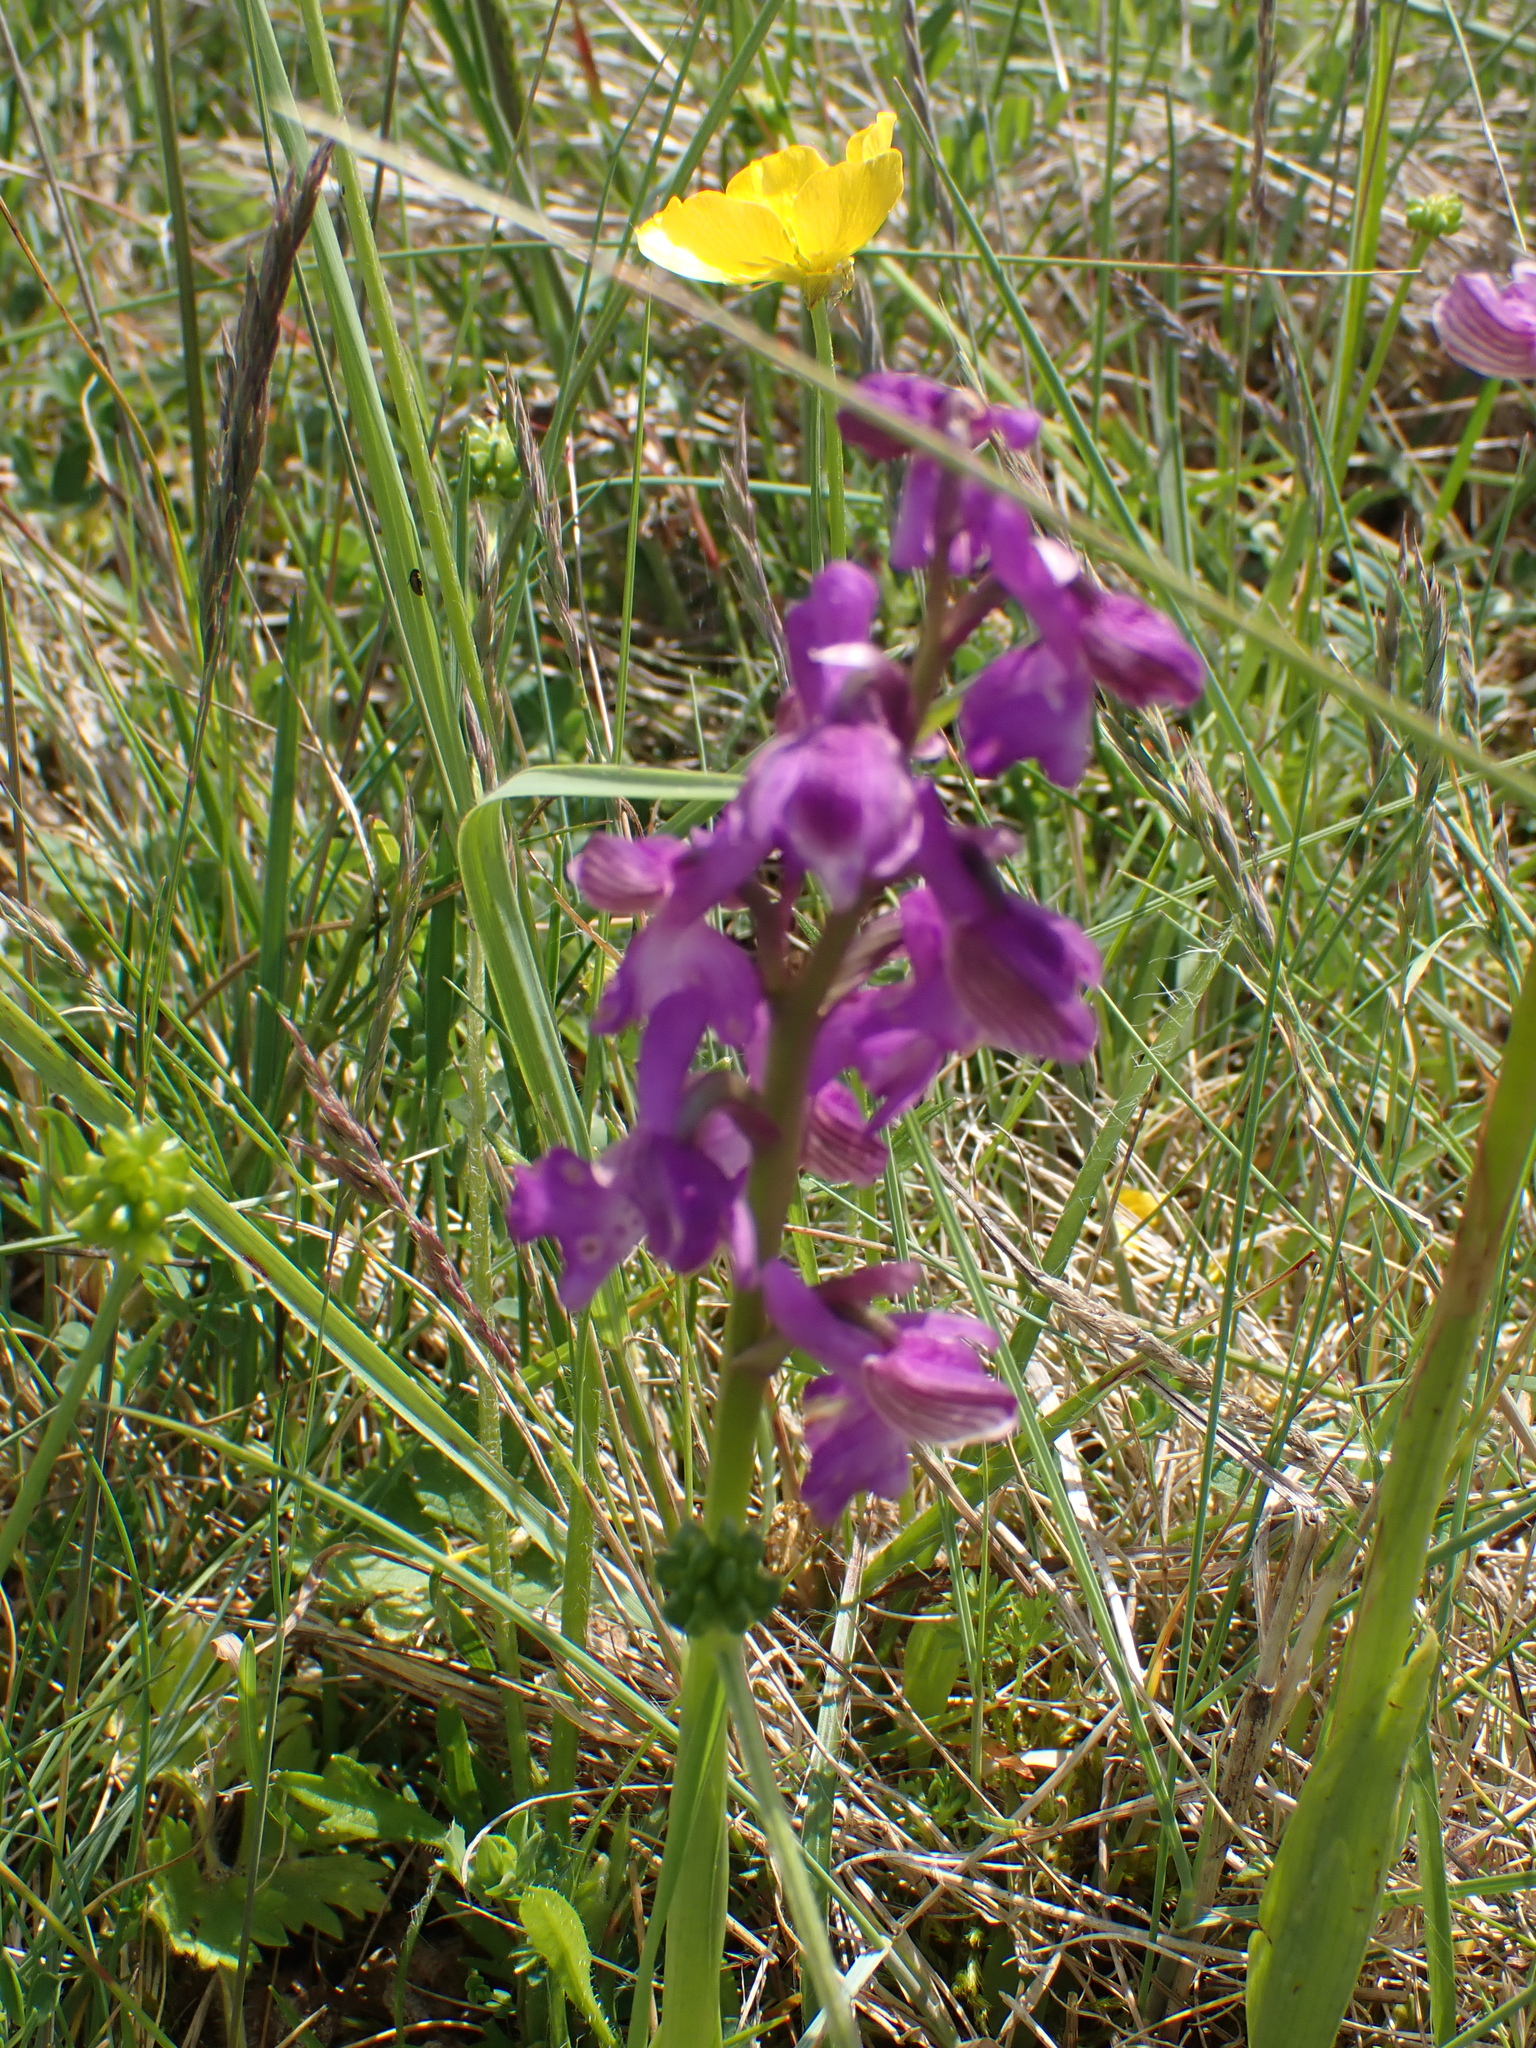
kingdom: Plantae
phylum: Tracheophyta
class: Liliopsida
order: Asparagales
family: Orchidaceae
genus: Anacamptis
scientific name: Anacamptis morio
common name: Green-winged orchid
